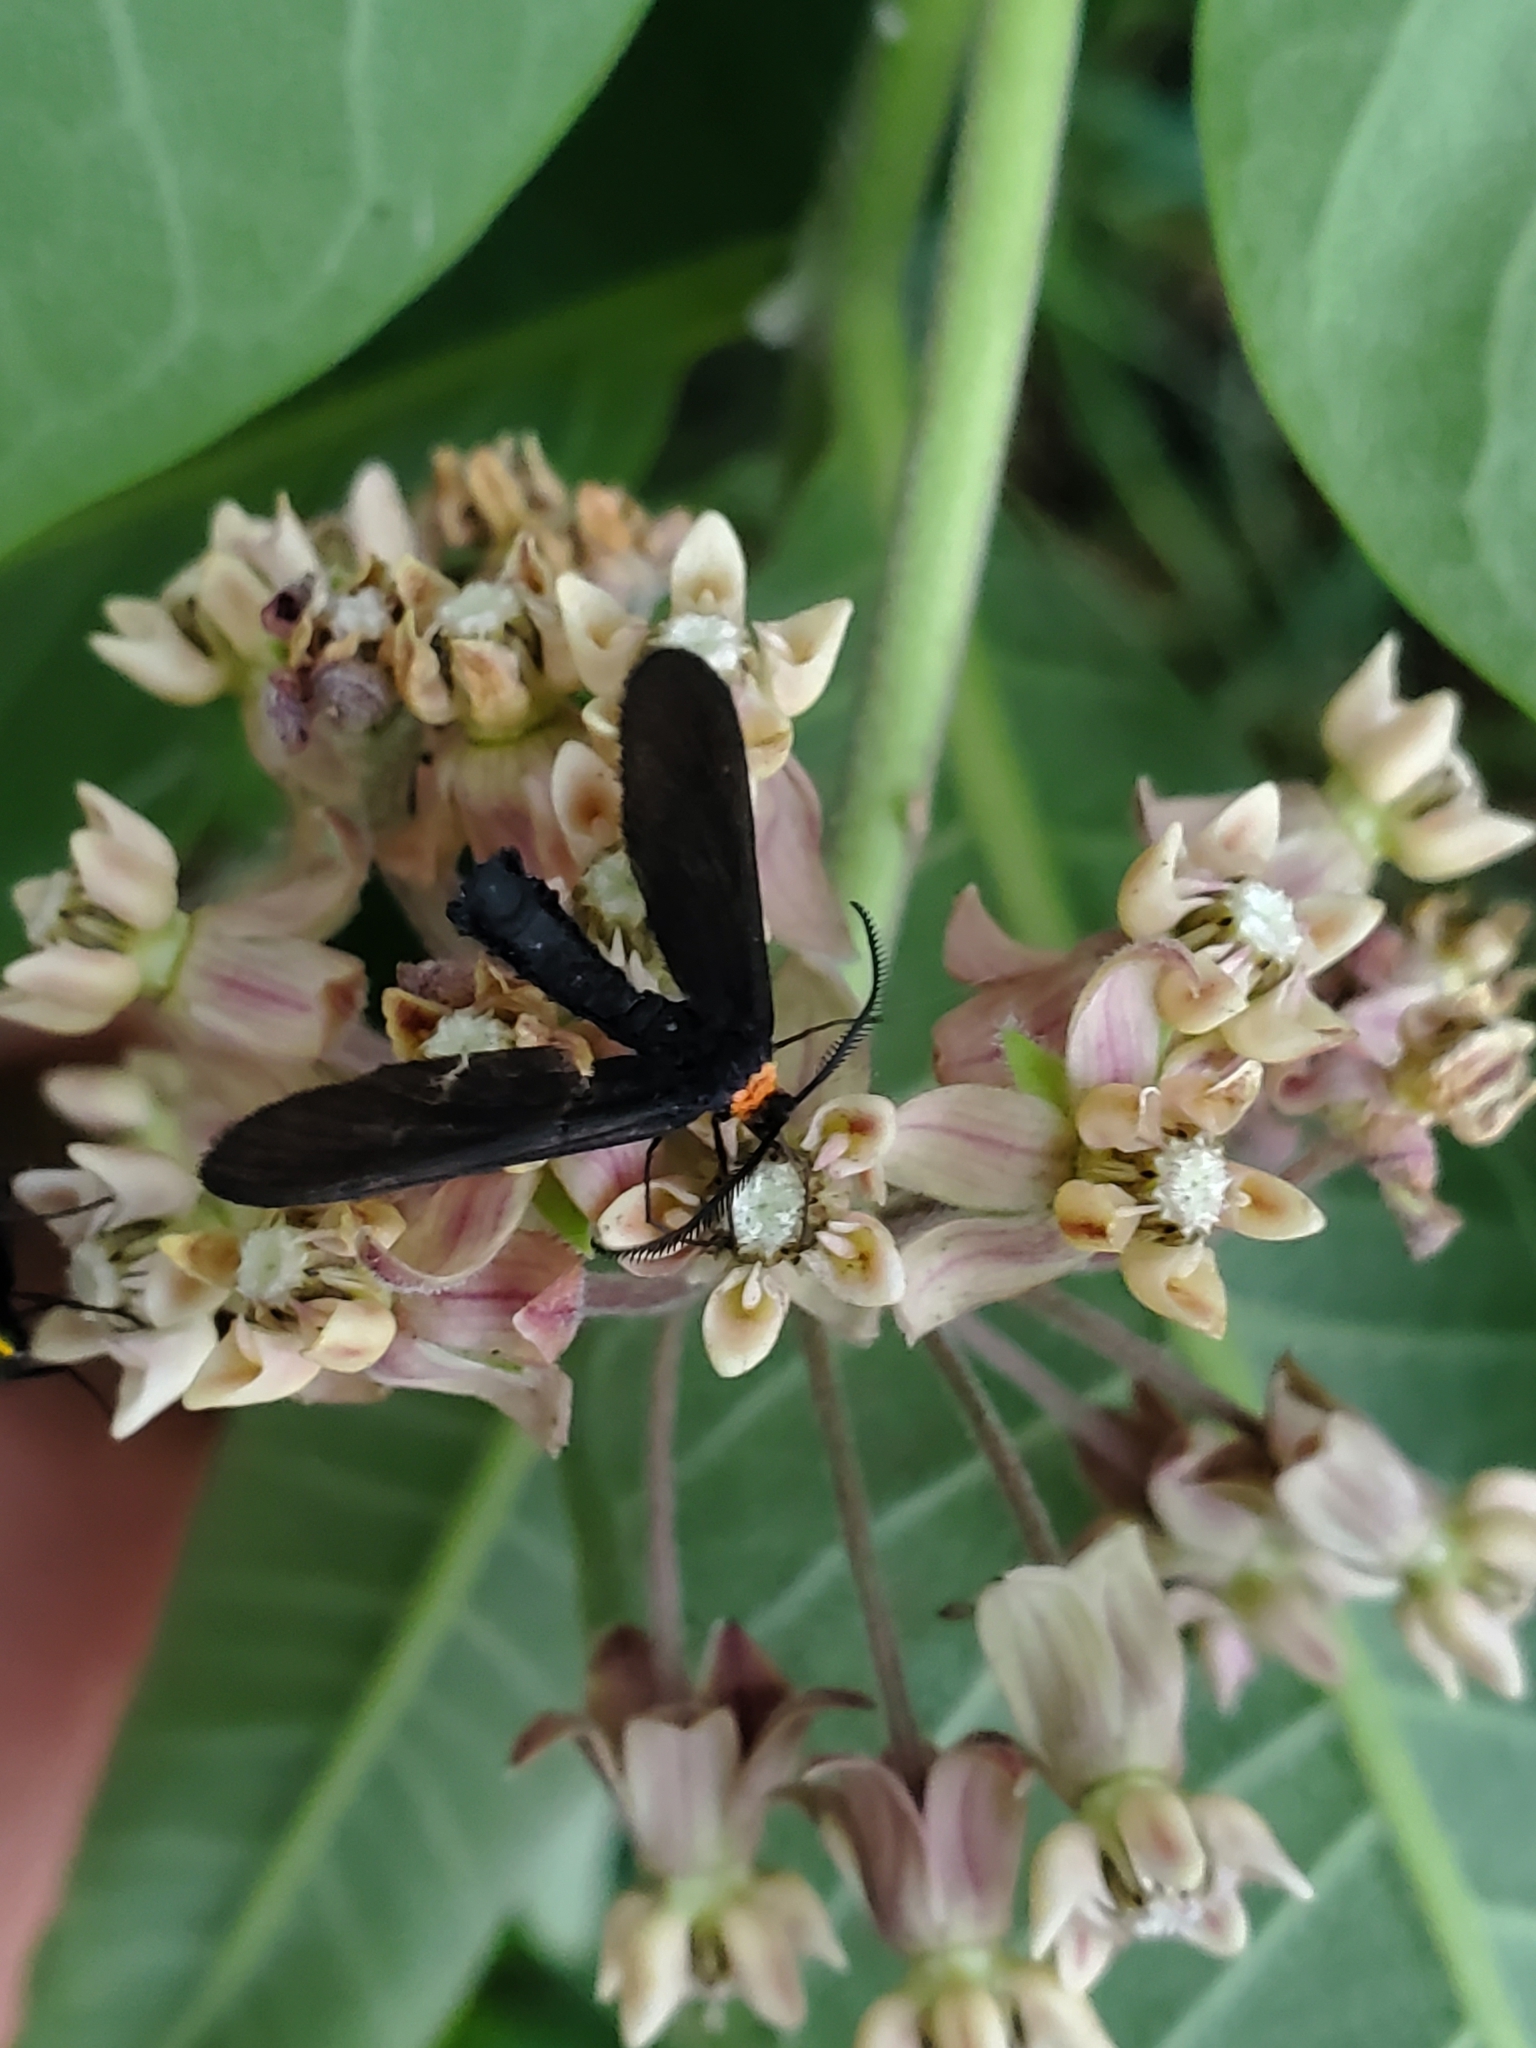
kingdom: Animalia
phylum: Arthropoda
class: Insecta
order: Lepidoptera
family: Zygaenidae
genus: Harrisina
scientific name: Harrisina americana
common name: Grapeleaf skeletonizer moth
